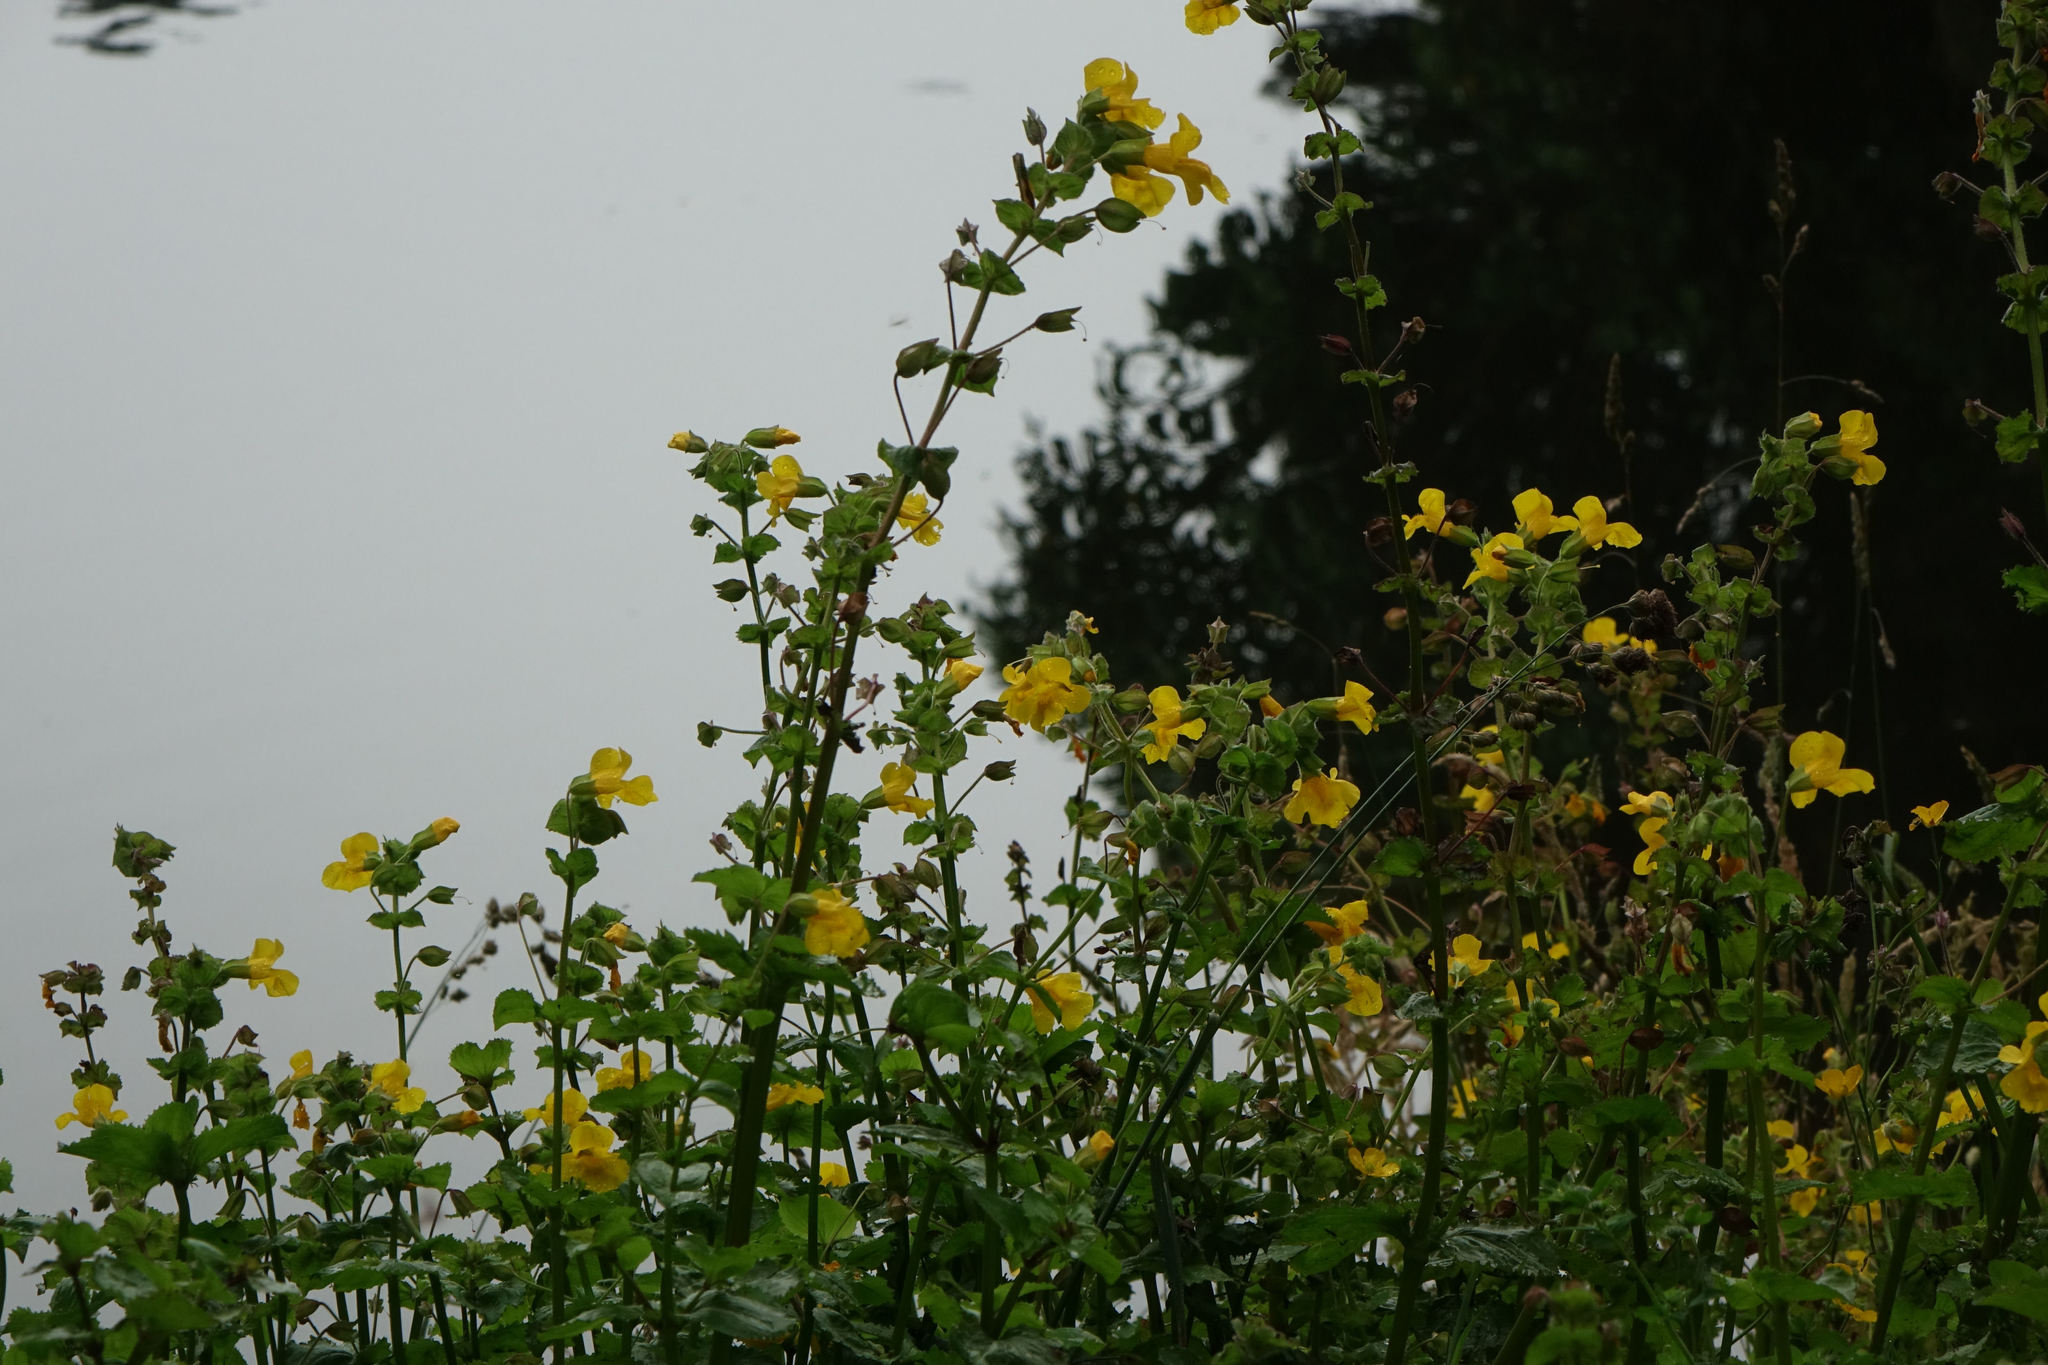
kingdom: Plantae
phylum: Tracheophyta
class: Magnoliopsida
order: Lamiales
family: Phrymaceae
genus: Erythranthe
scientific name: Erythranthe guttata
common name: Monkeyflower
